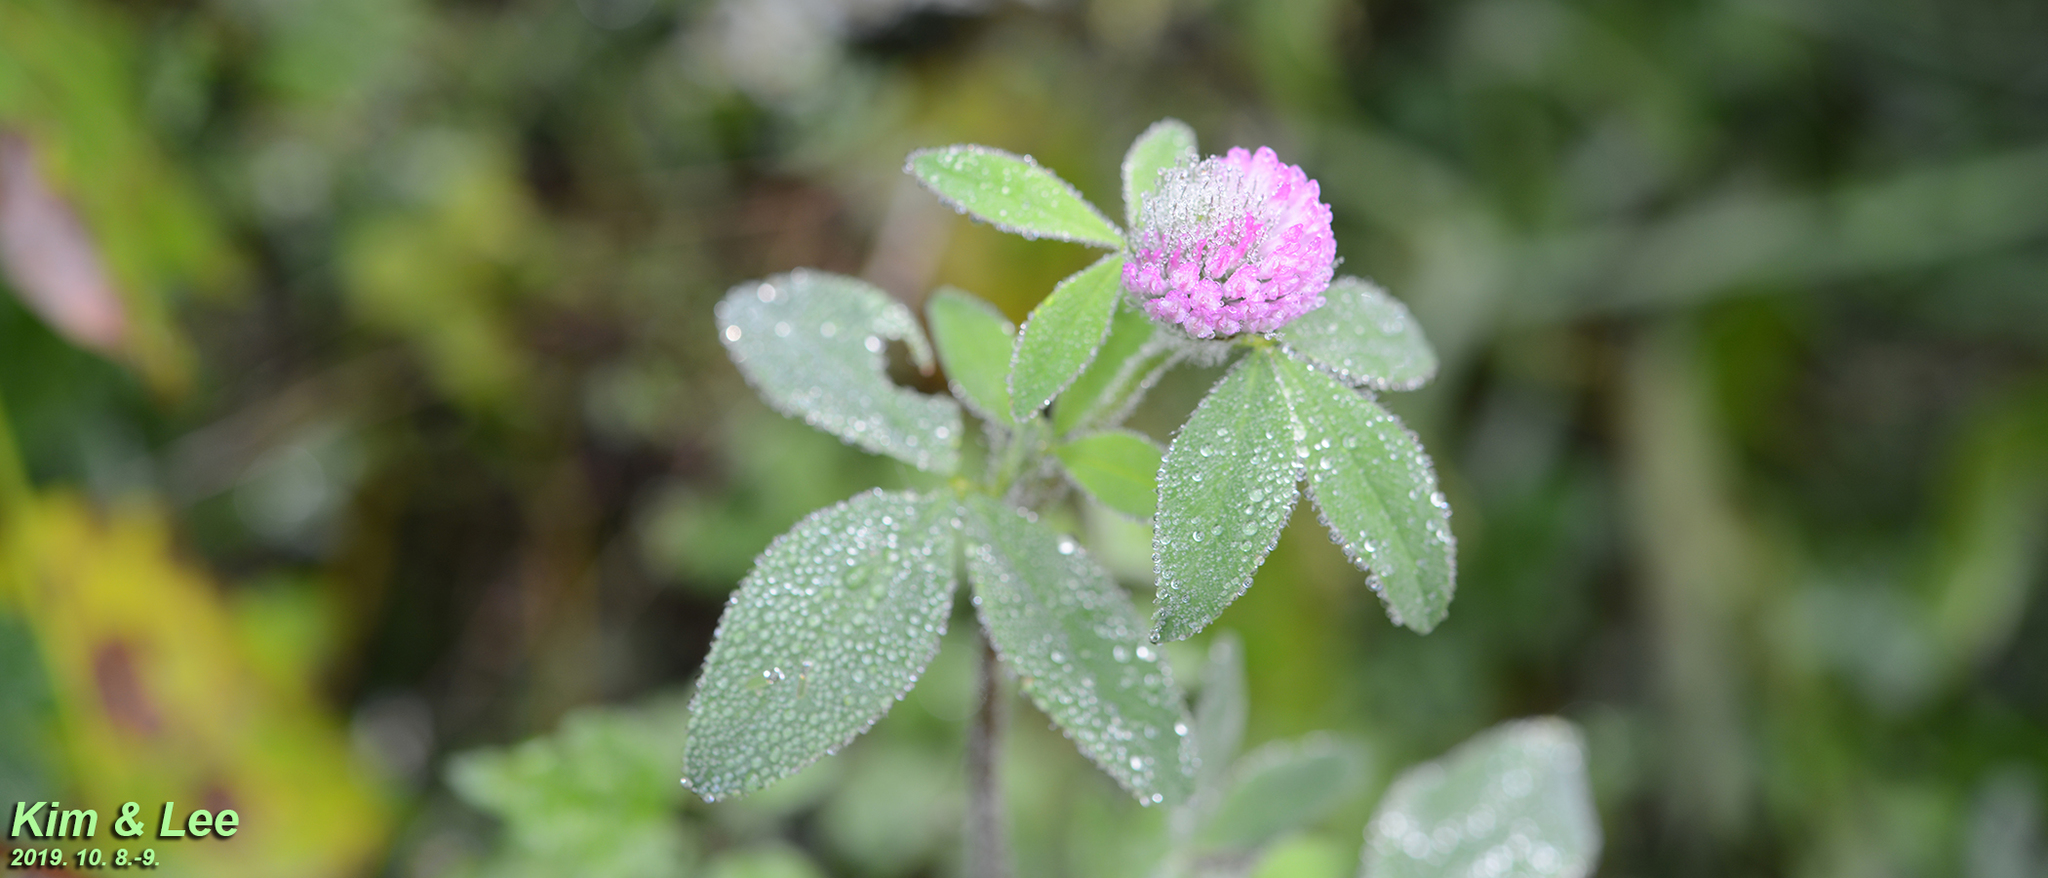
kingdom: Plantae
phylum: Tracheophyta
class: Magnoliopsida
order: Fabales
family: Fabaceae
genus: Trifolium
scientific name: Trifolium pratense
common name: Red clover
